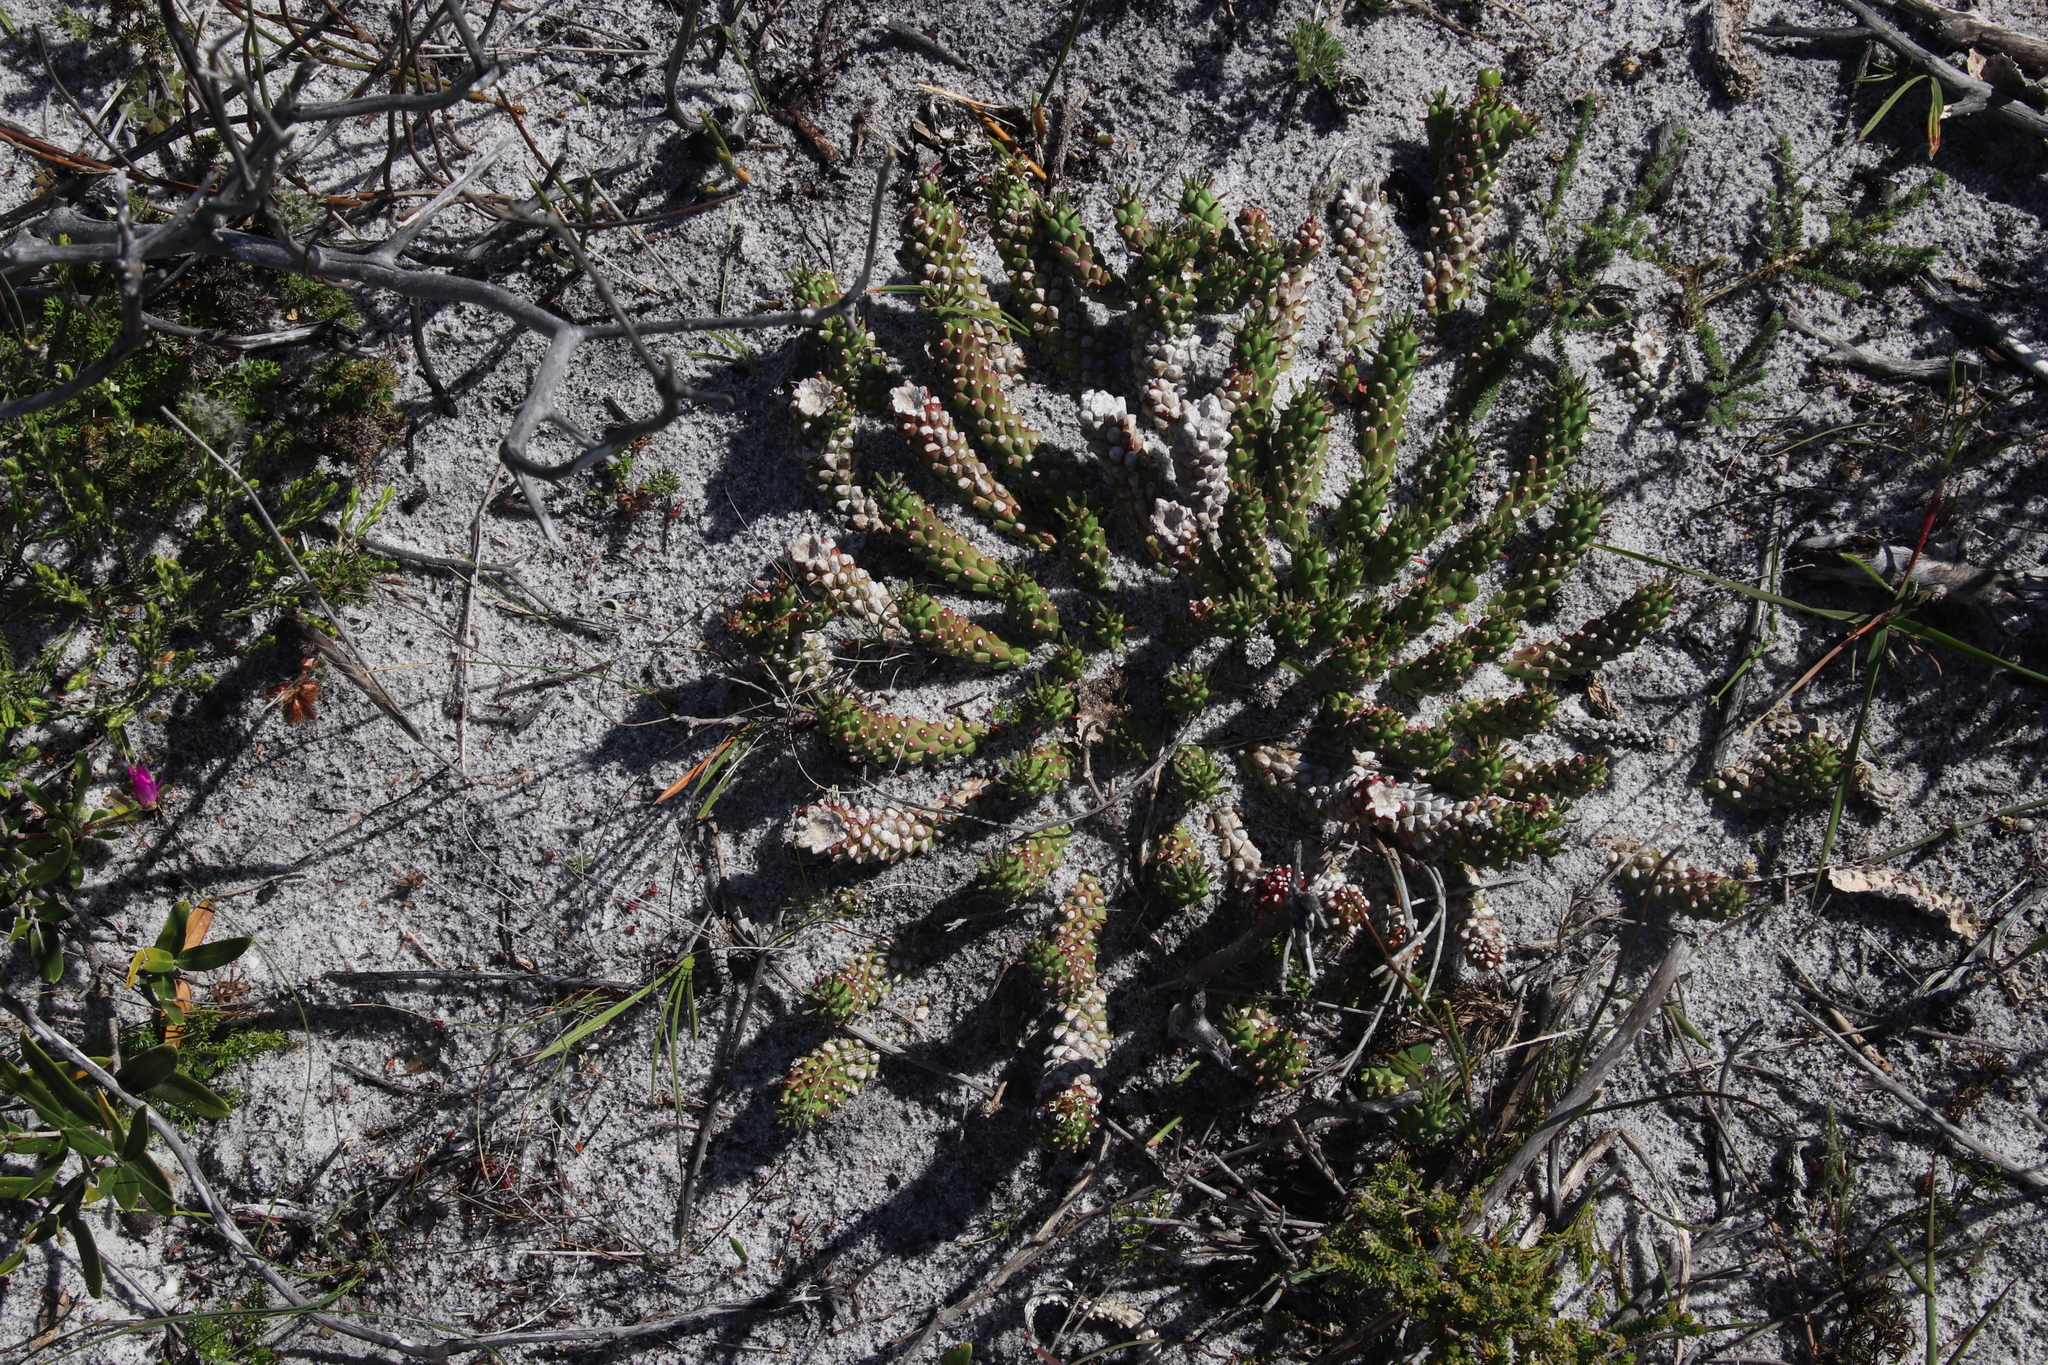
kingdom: Plantae
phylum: Tracheophyta
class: Magnoliopsida
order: Malpighiales
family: Euphorbiaceae
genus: Euphorbia
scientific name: Euphorbia caput-medusae
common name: Medusa's-head
